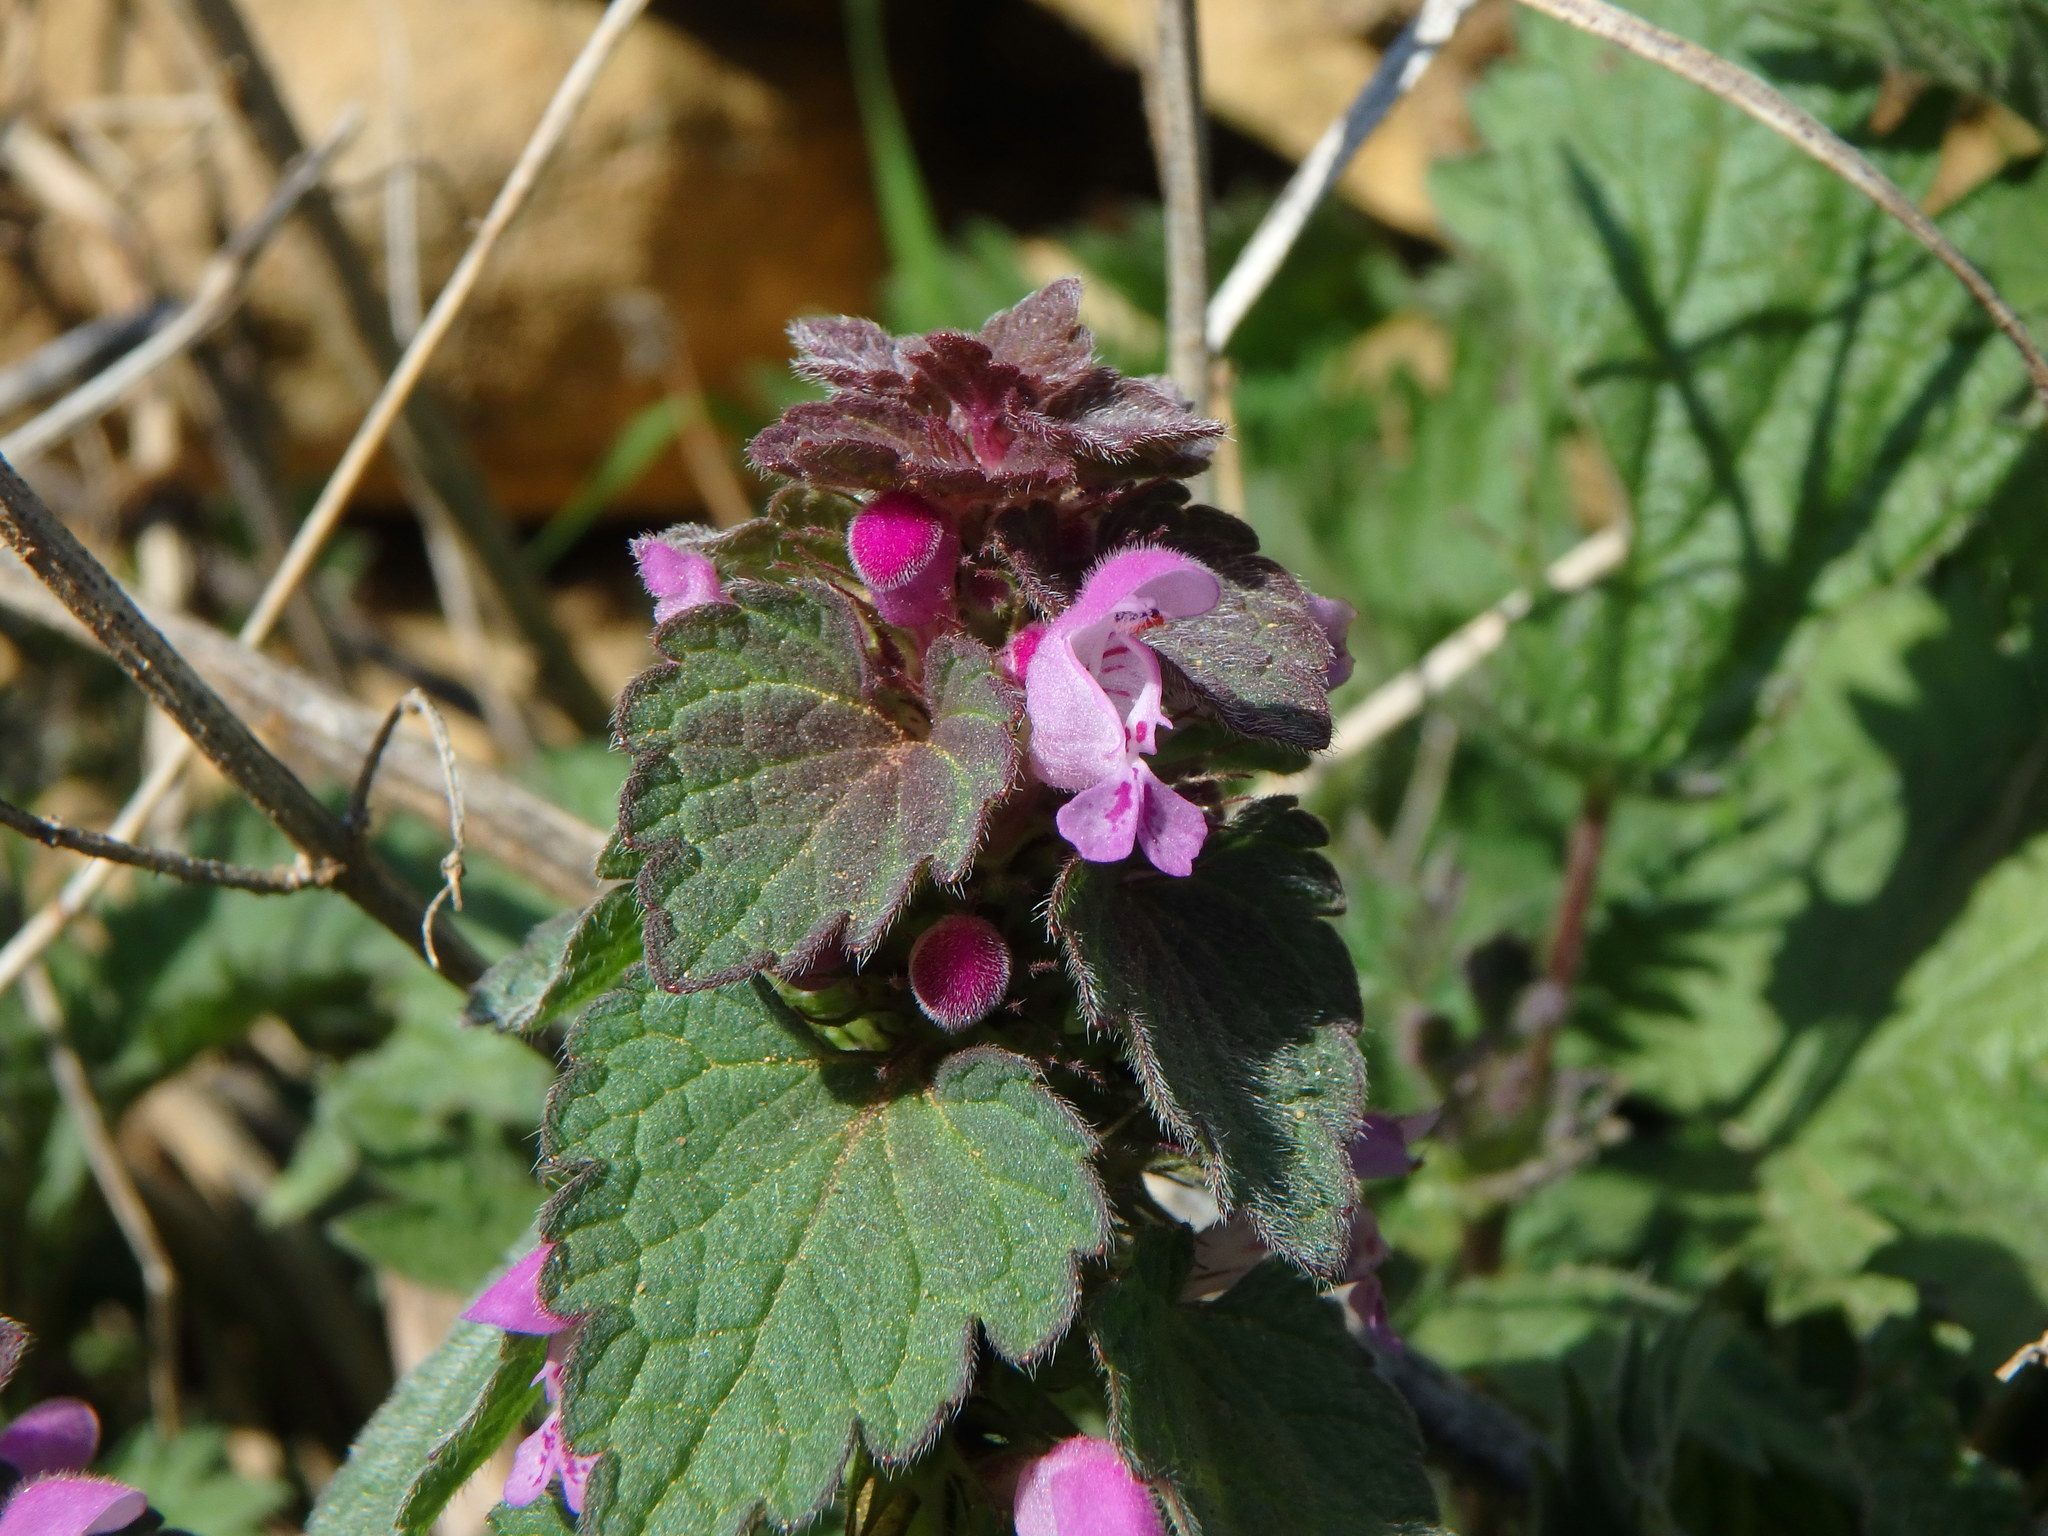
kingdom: Plantae
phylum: Tracheophyta
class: Magnoliopsida
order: Lamiales
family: Lamiaceae
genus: Lamium
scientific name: Lamium purpureum
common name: Red dead-nettle
